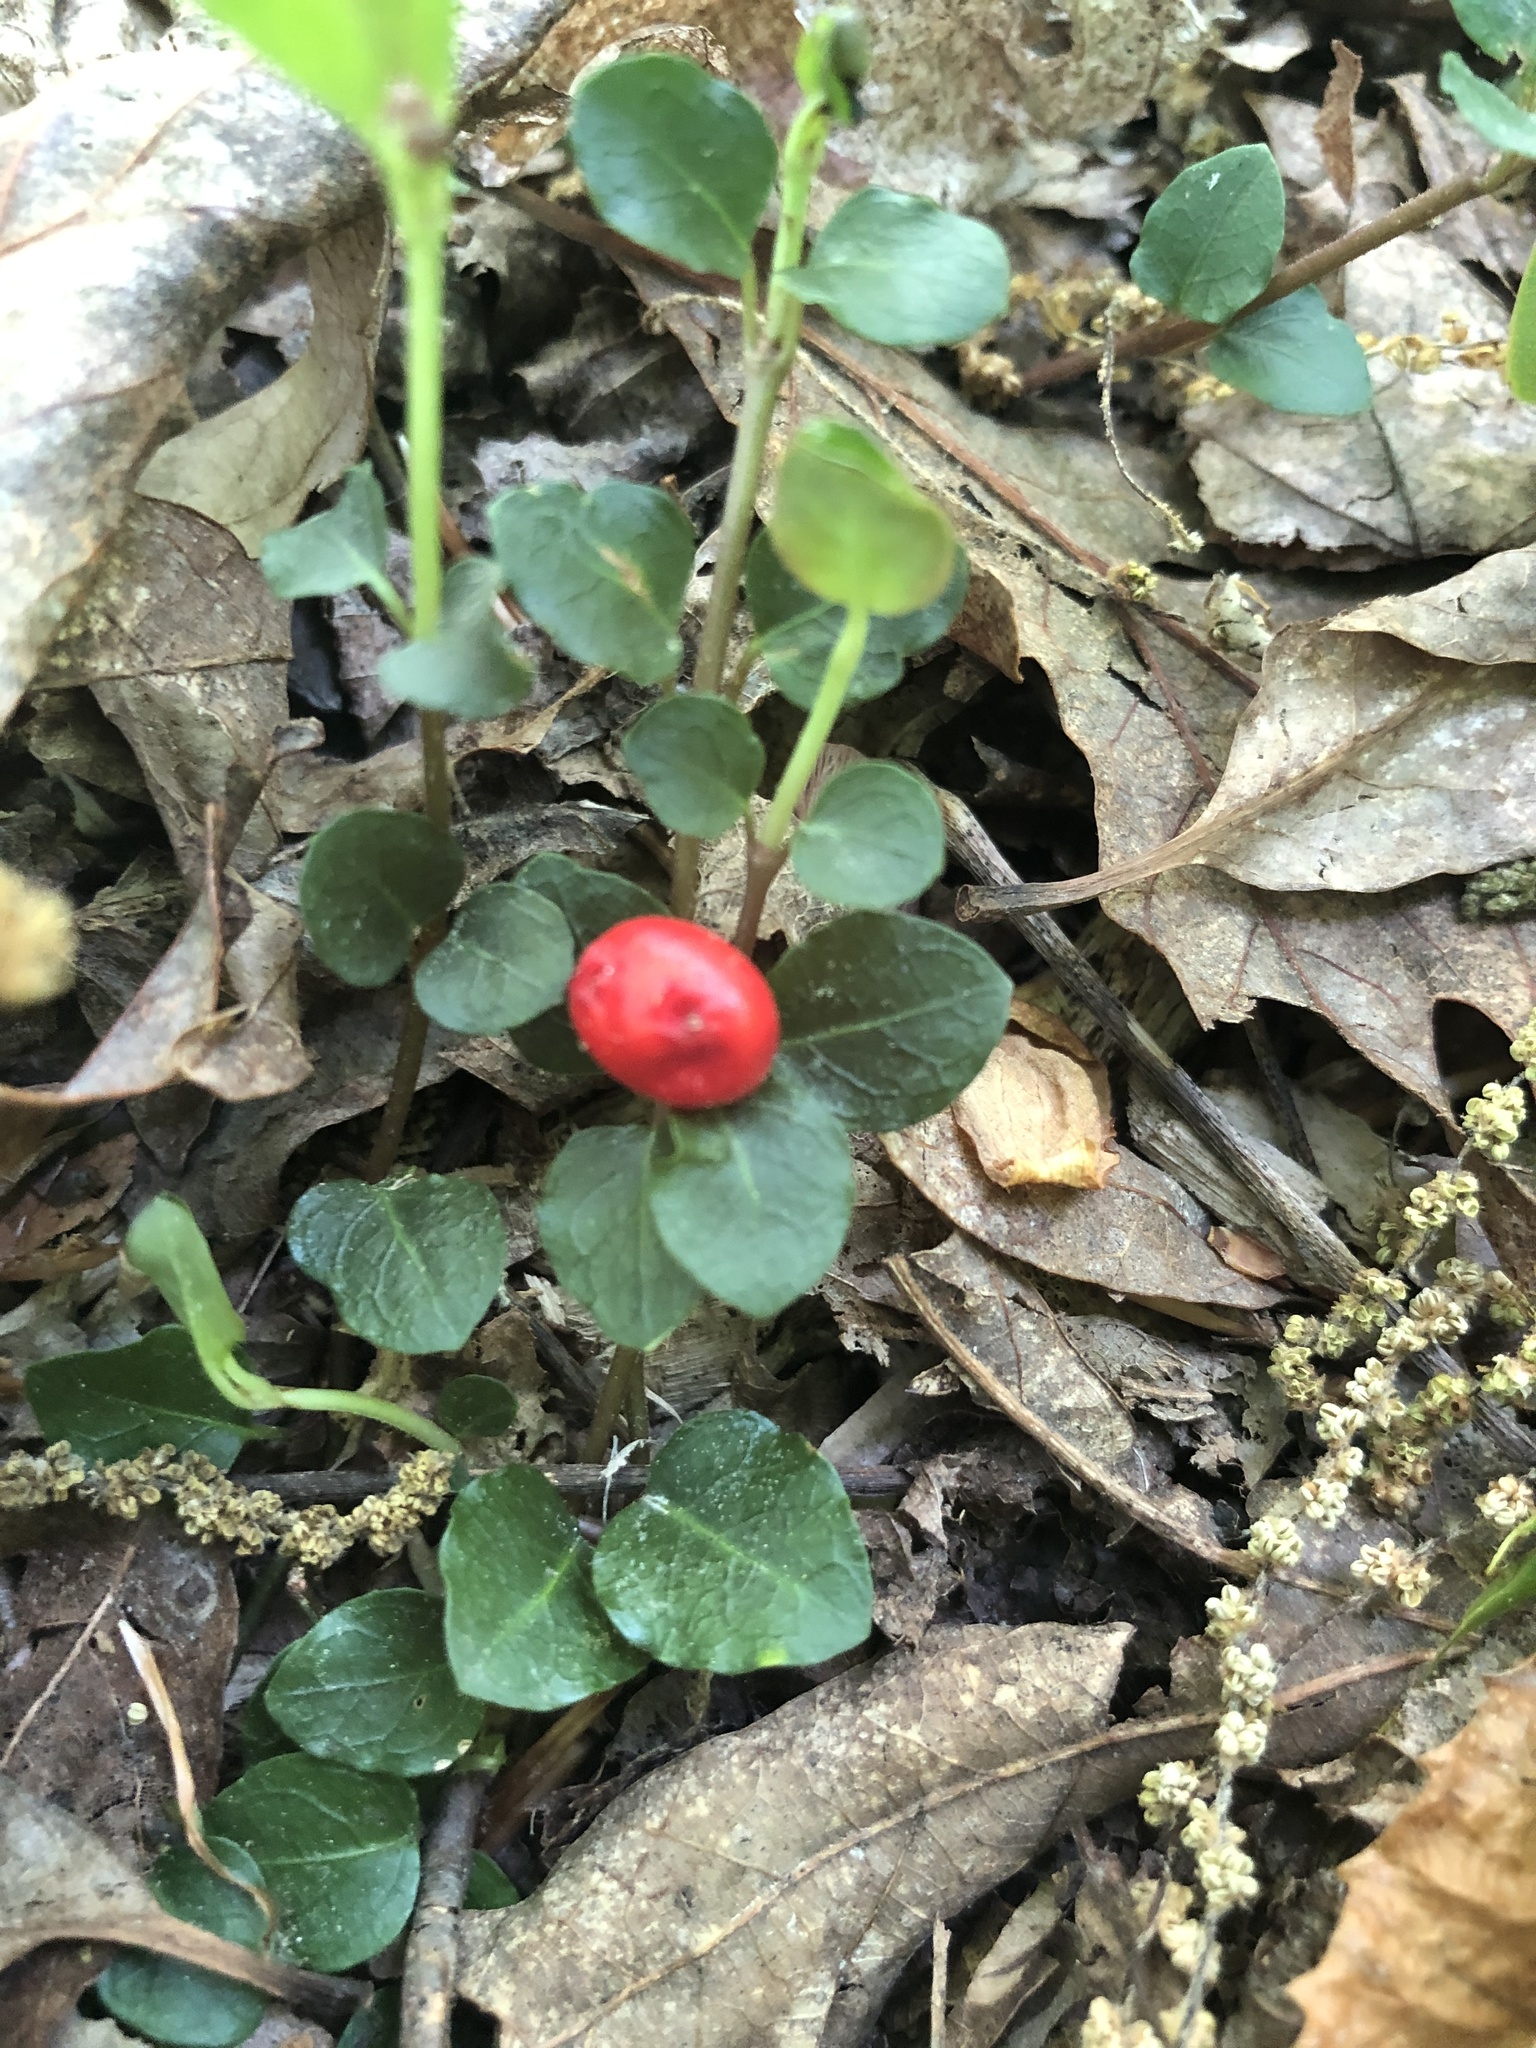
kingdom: Plantae
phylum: Tracheophyta
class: Magnoliopsida
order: Gentianales
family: Rubiaceae
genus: Mitchella
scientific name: Mitchella repens
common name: Partridge-berry
